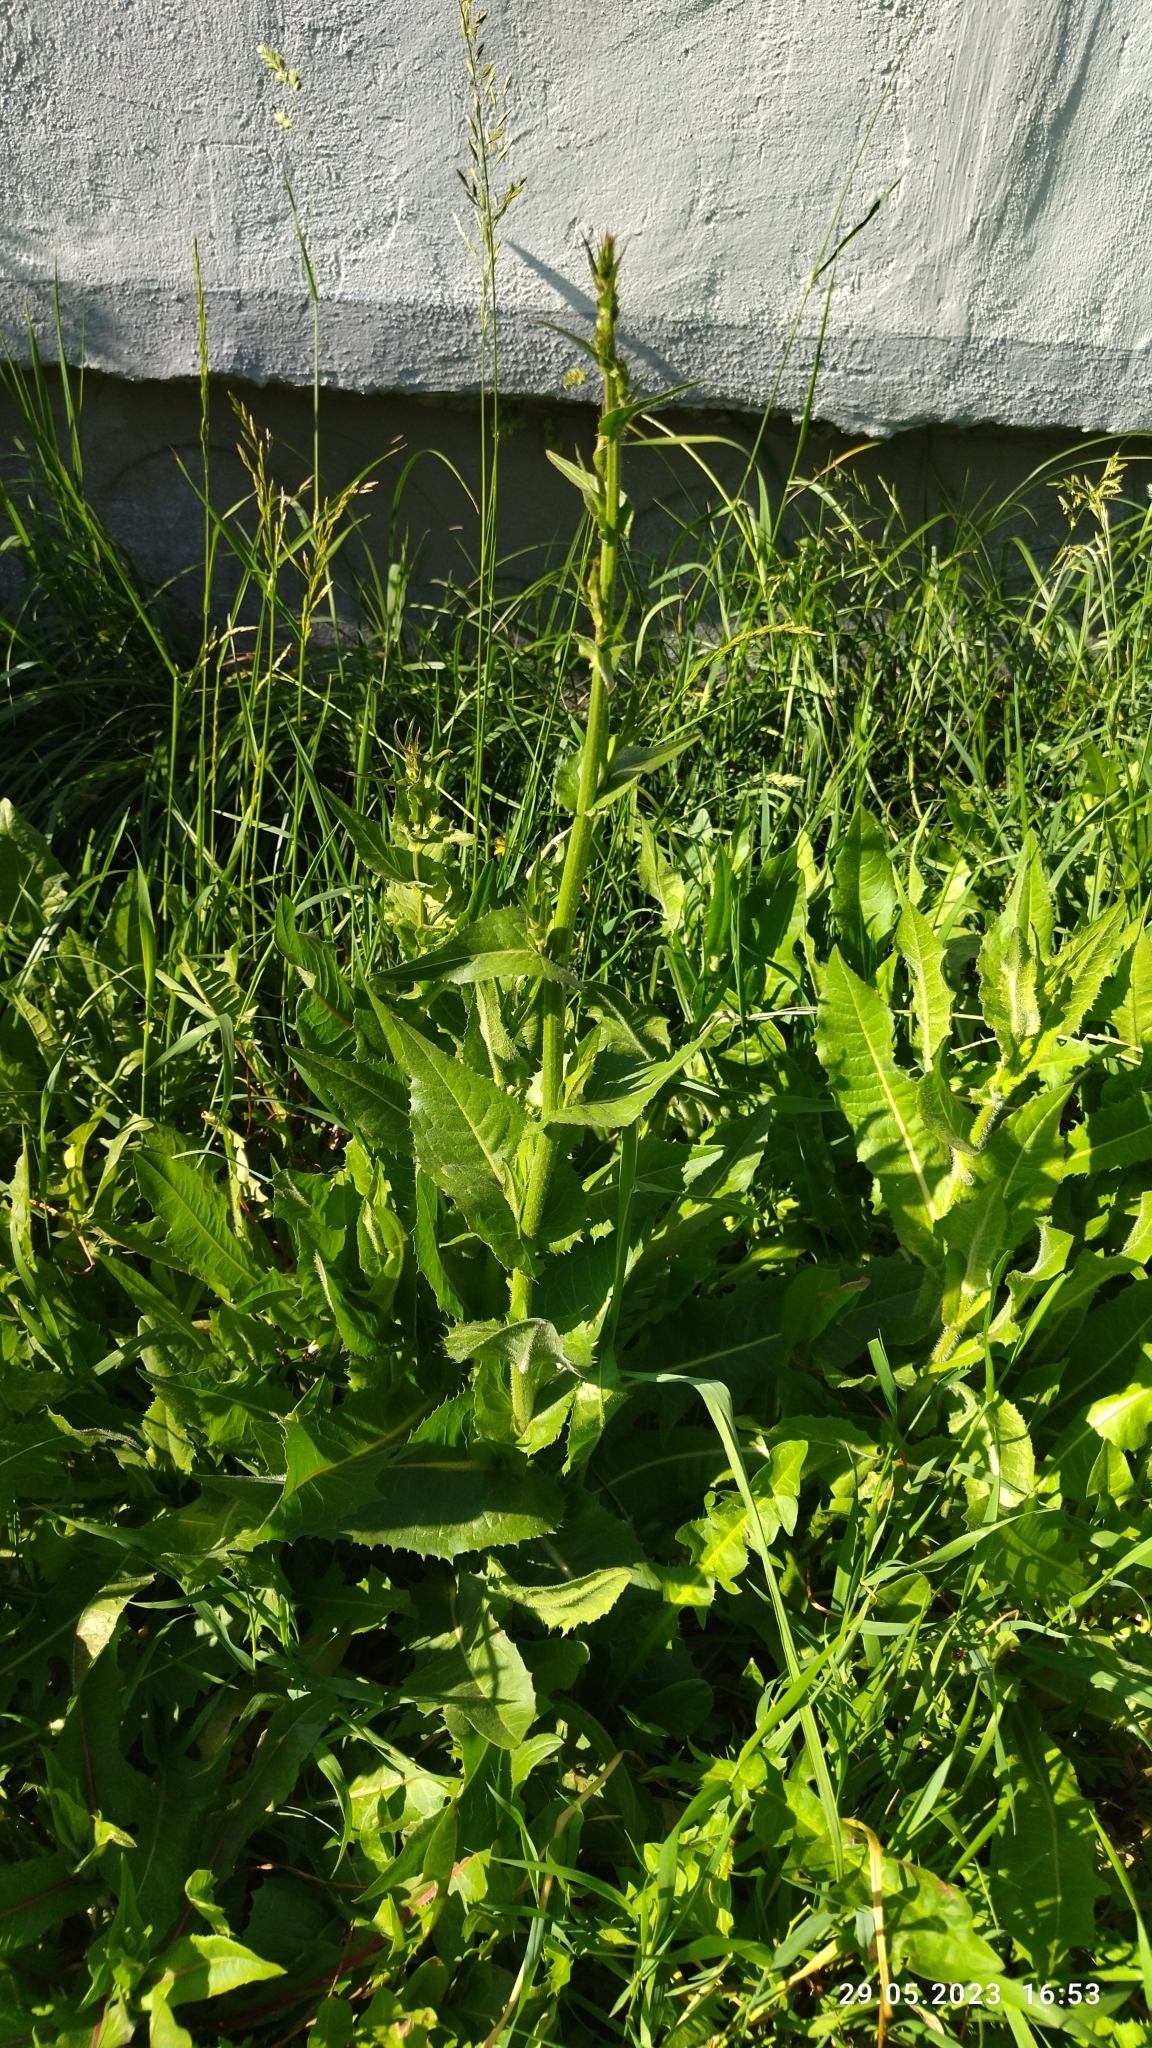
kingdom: Plantae
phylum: Tracheophyta
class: Magnoliopsida
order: Asterales
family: Asteraceae
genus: Cichorium
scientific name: Cichorium intybus
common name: Chicory
